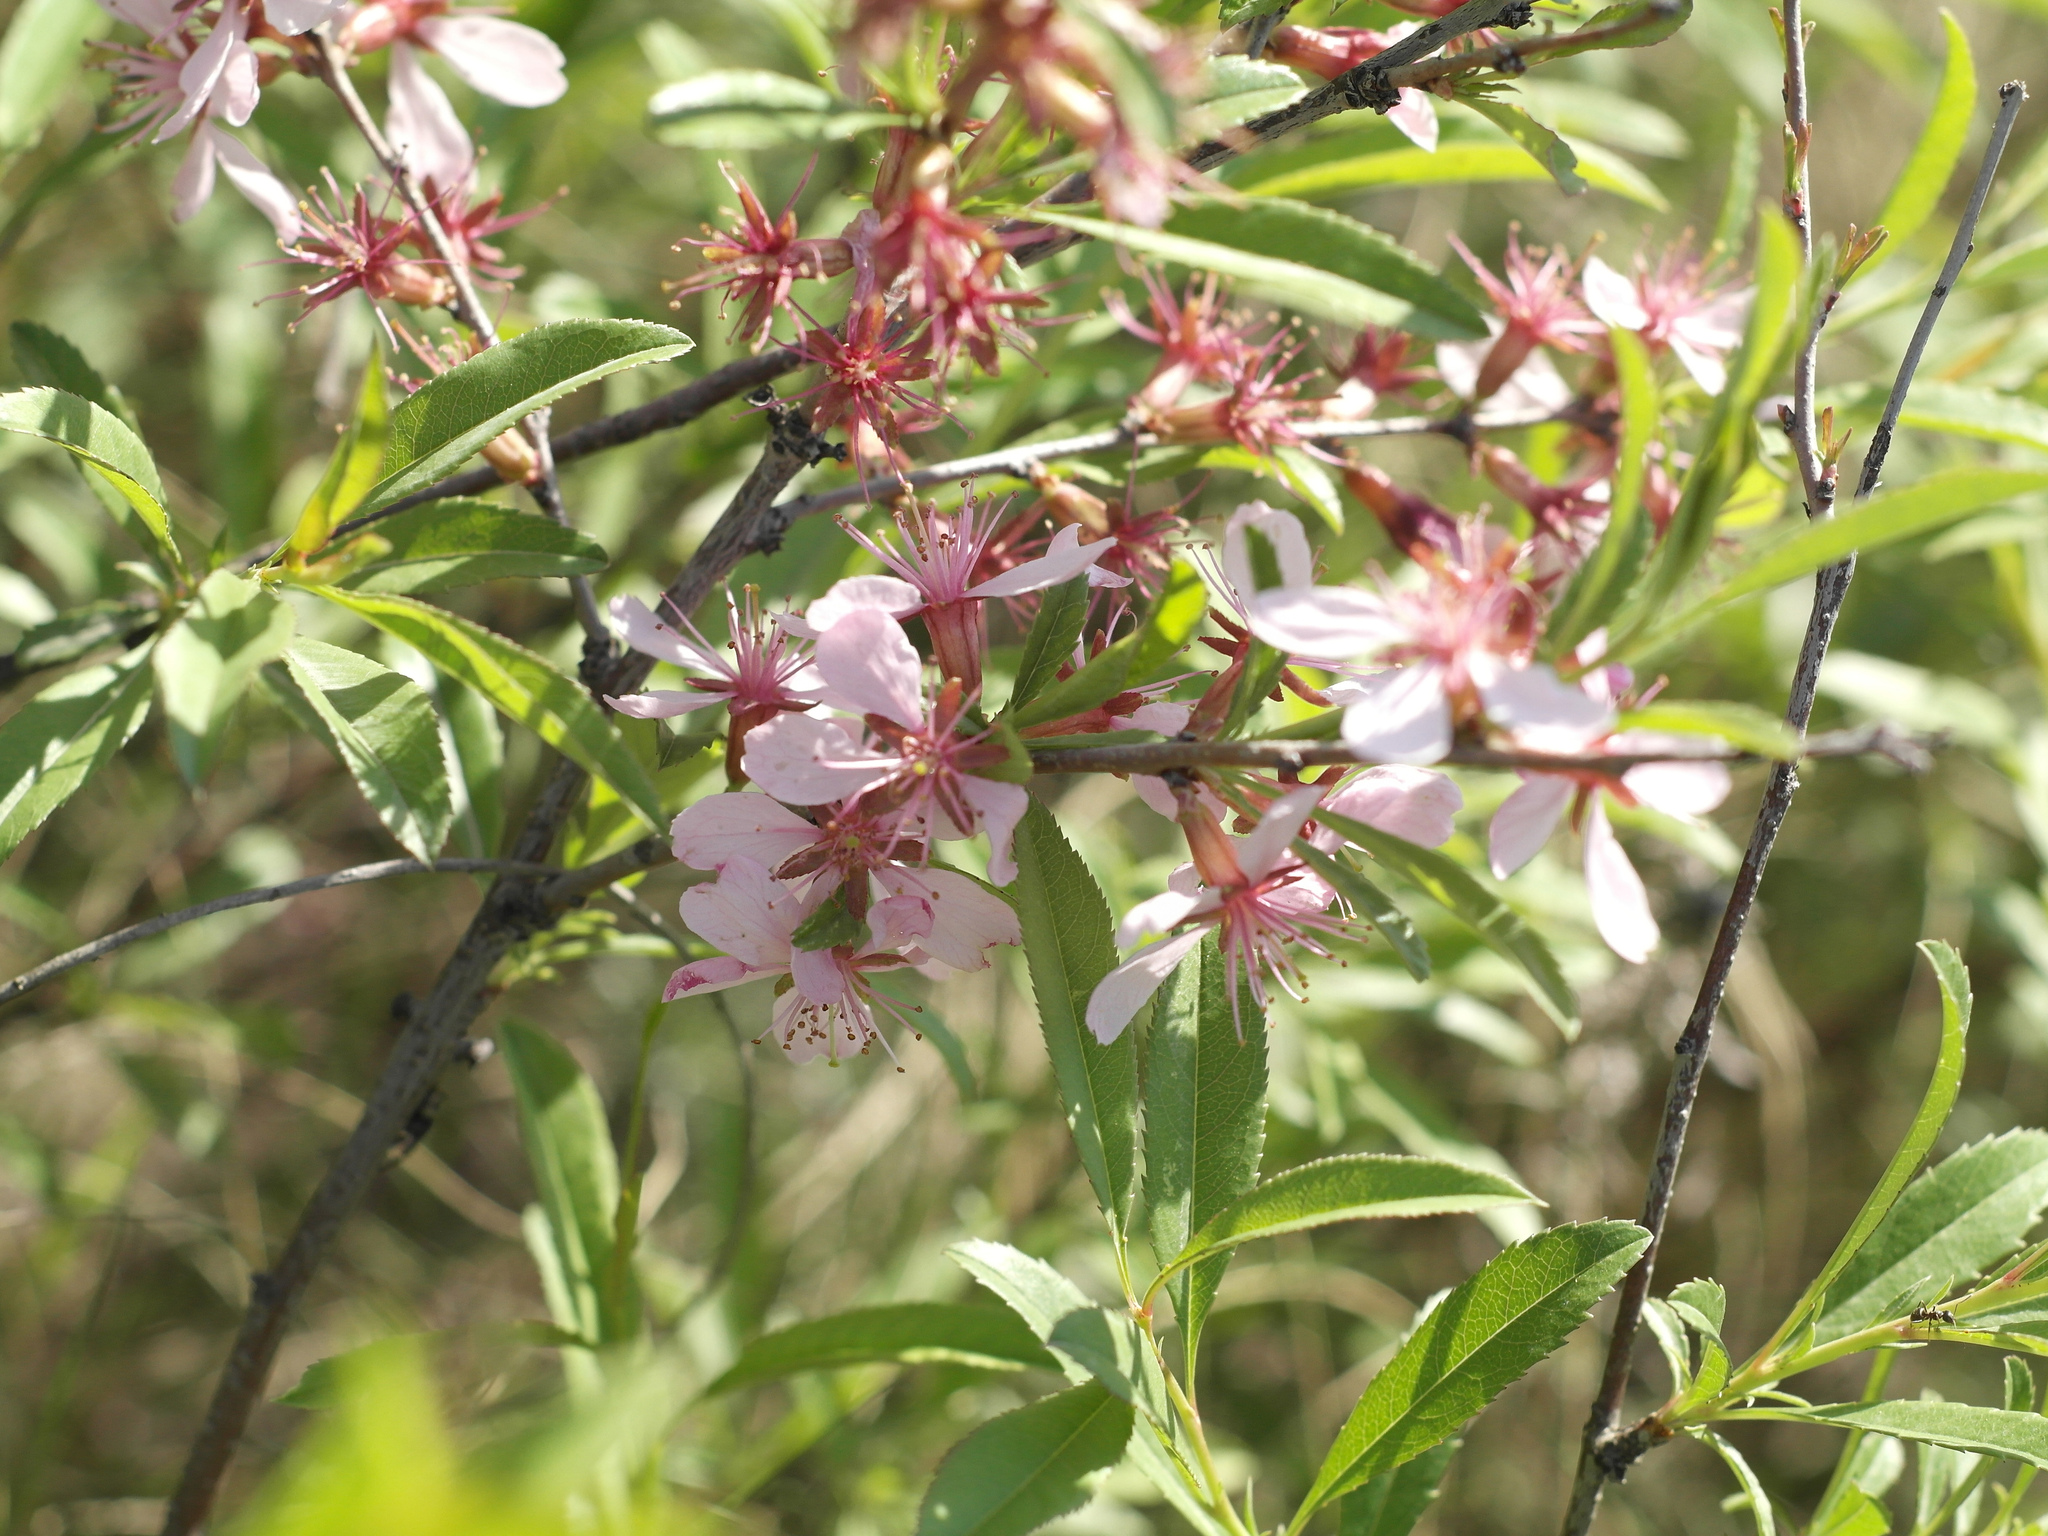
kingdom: Plantae
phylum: Tracheophyta
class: Magnoliopsida
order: Rosales
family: Rosaceae
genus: Prunus
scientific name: Prunus tenella
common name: Dwarf russian almond
